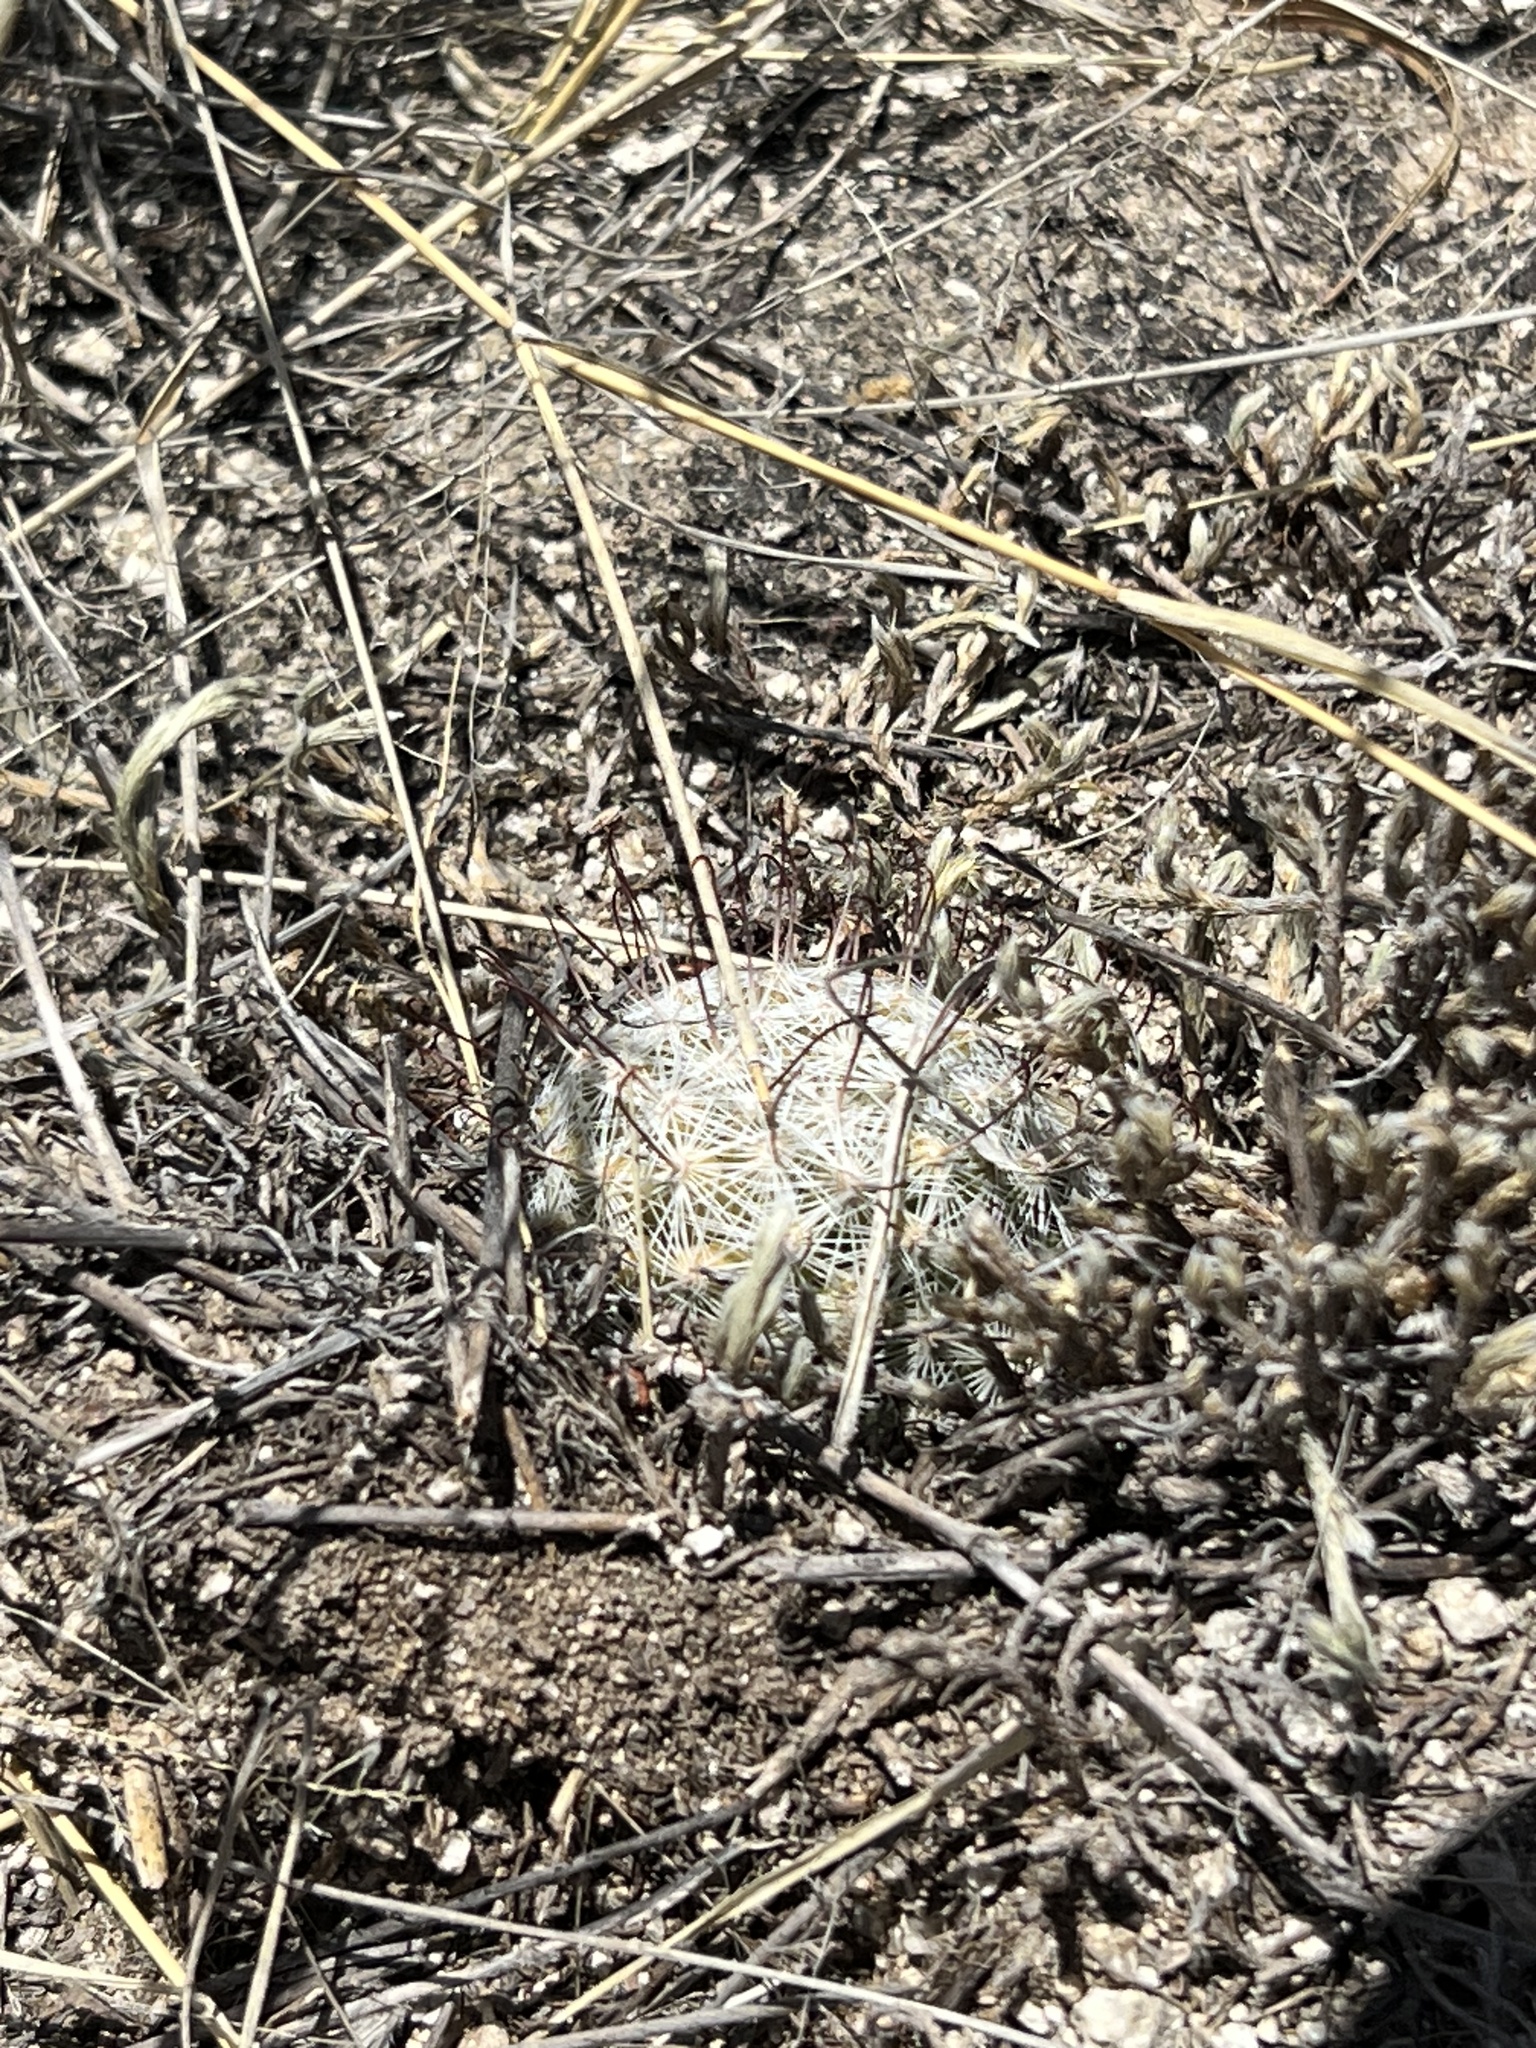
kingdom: Plantae
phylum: Tracheophyta
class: Magnoliopsida
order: Caryophyllales
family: Cactaceae
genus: Cochemiea
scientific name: Cochemiea grahamii
